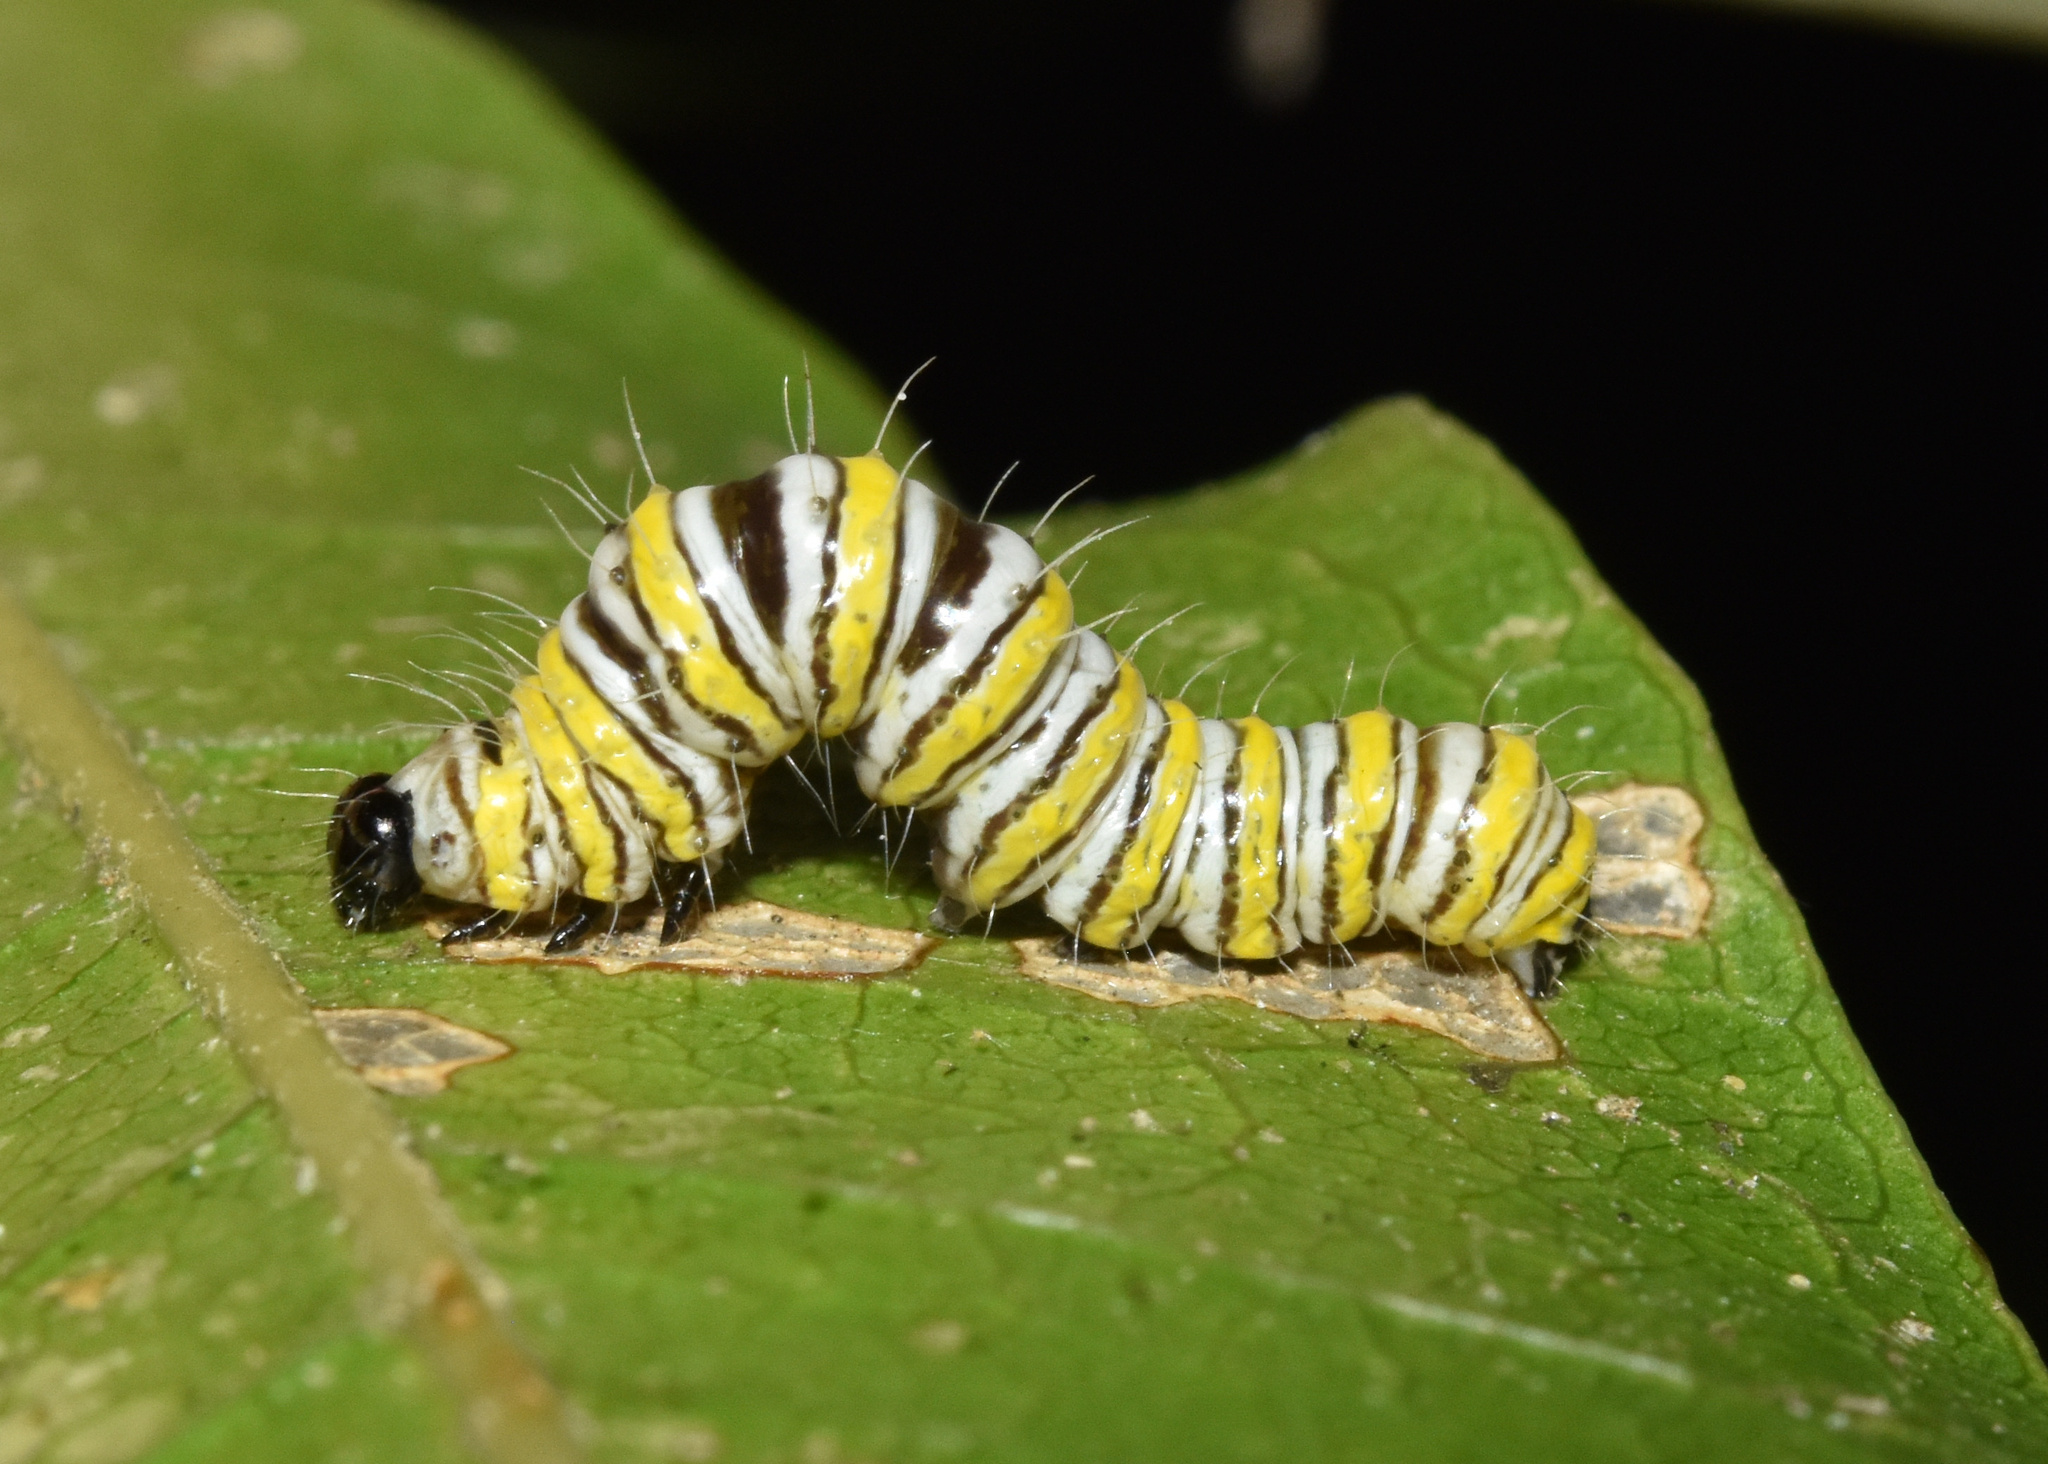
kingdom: Animalia
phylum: Arthropoda
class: Insecta
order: Lepidoptera
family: Erebidae
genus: Egybolis
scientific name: Egybolis vaillantina
